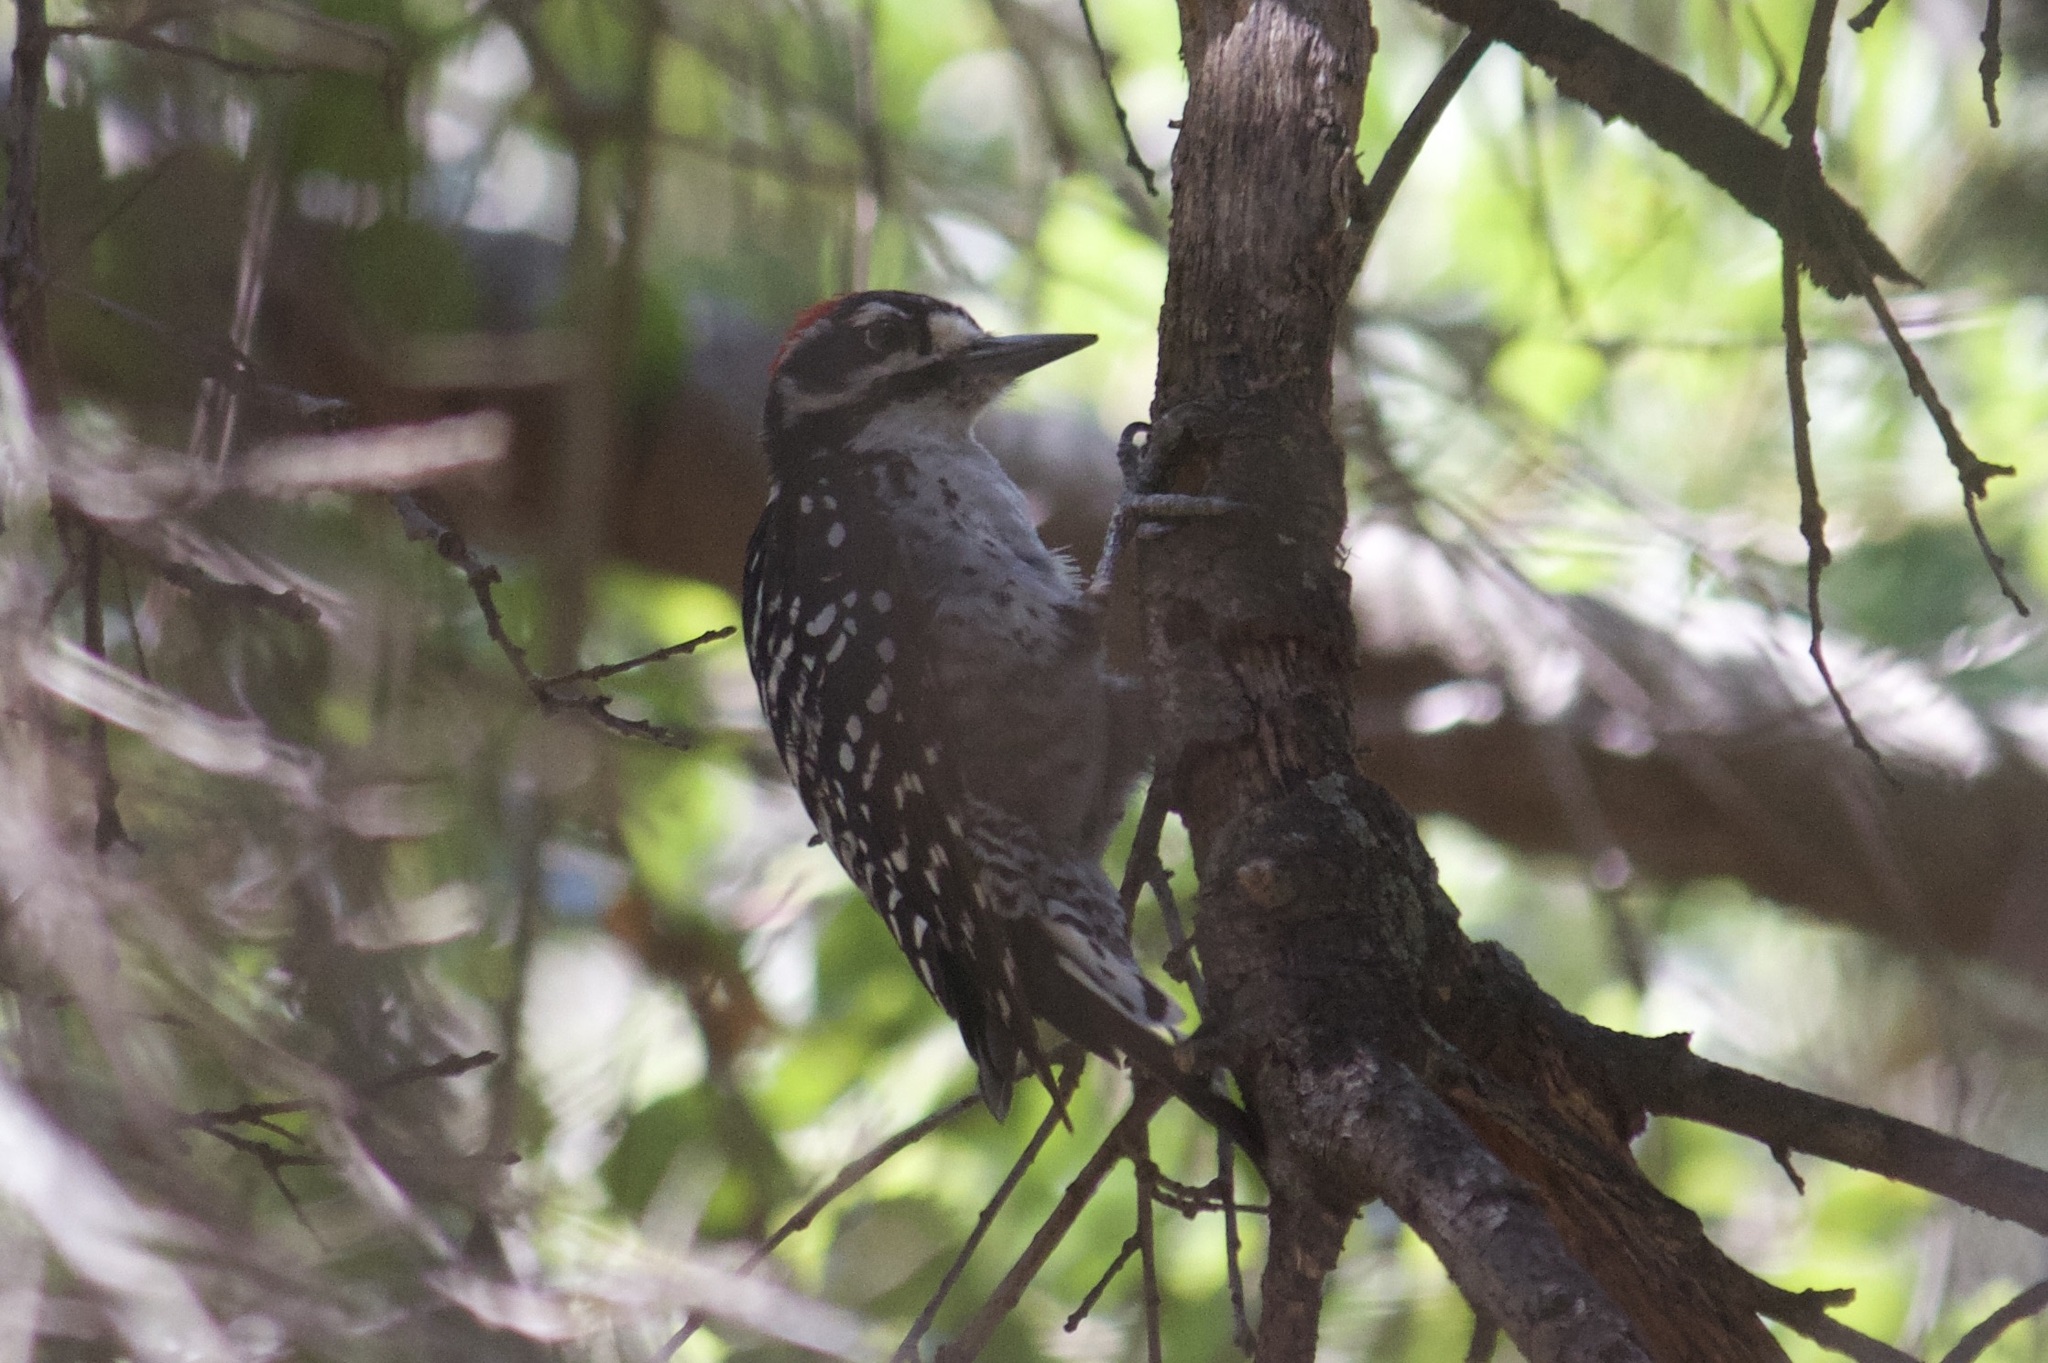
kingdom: Animalia
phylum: Chordata
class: Aves
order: Piciformes
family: Picidae
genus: Dryobates
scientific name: Dryobates nuttallii
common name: Nuttall's woodpecker
